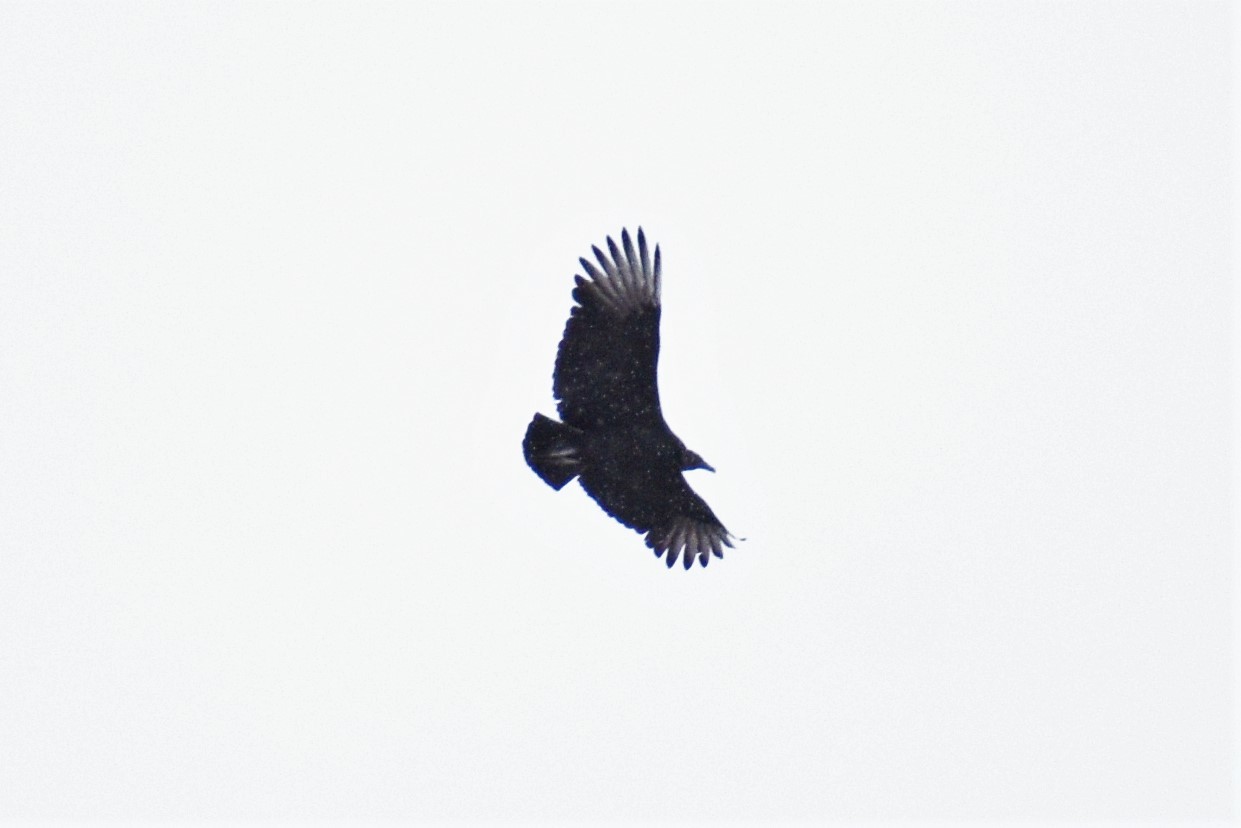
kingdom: Animalia
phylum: Chordata
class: Aves
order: Accipitriformes
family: Cathartidae
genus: Coragyps
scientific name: Coragyps atratus
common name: Black vulture
